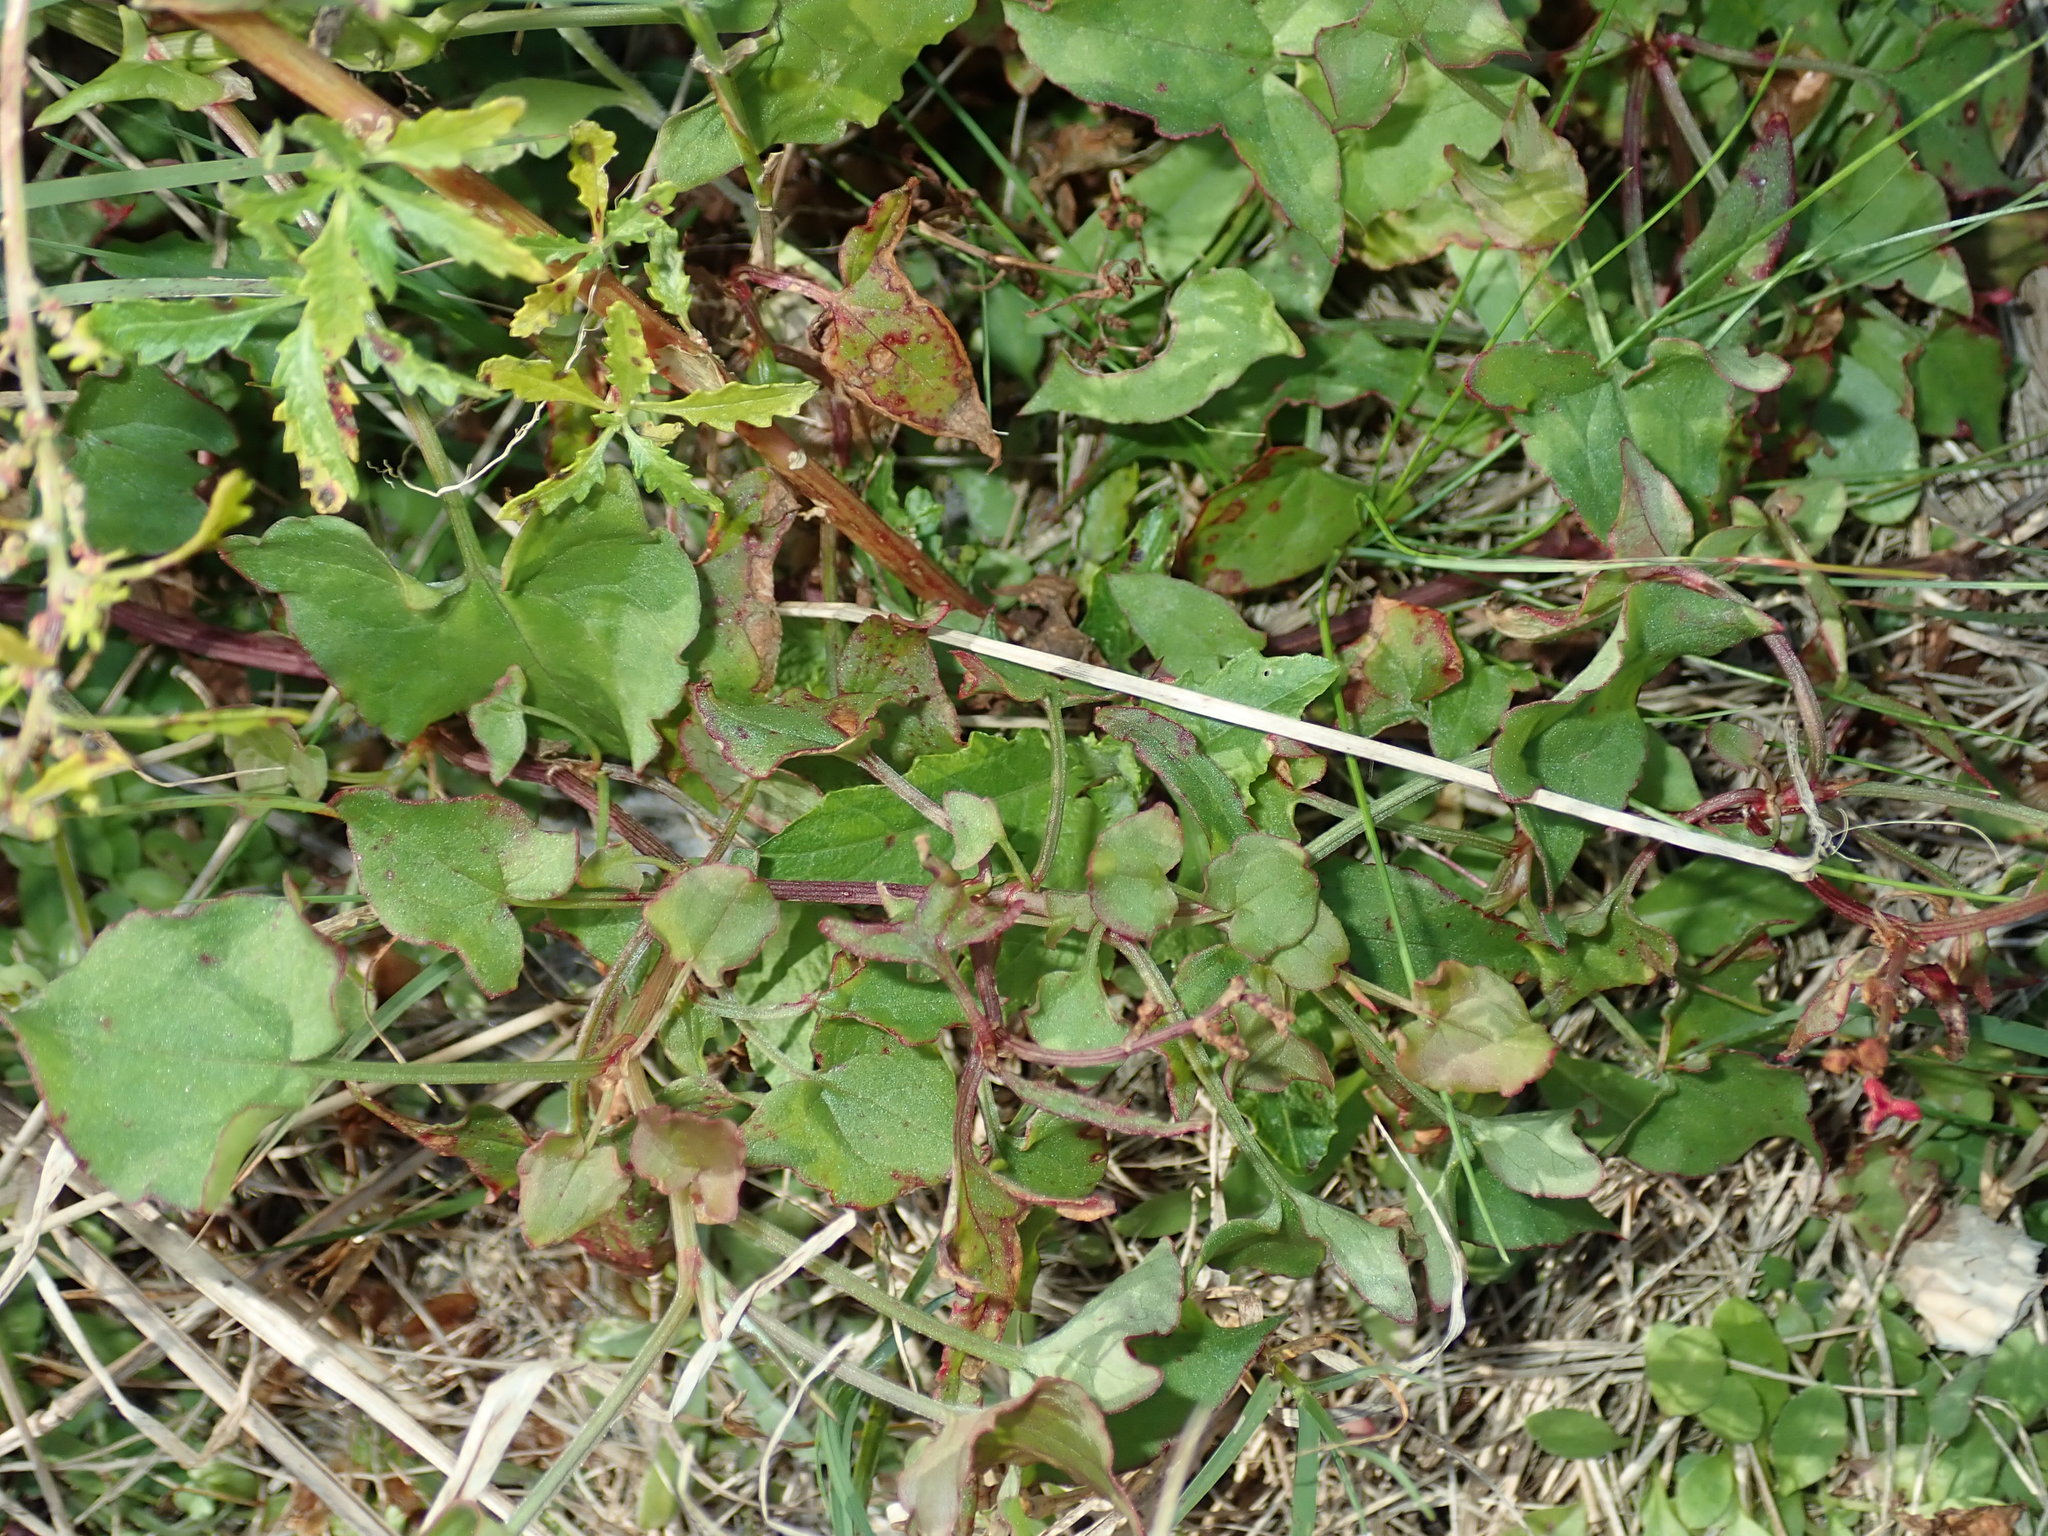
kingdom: Plantae
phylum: Tracheophyta
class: Magnoliopsida
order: Caryophyllales
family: Polygonaceae
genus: Rumex
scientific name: Rumex sagittatus
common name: Climbing dock
